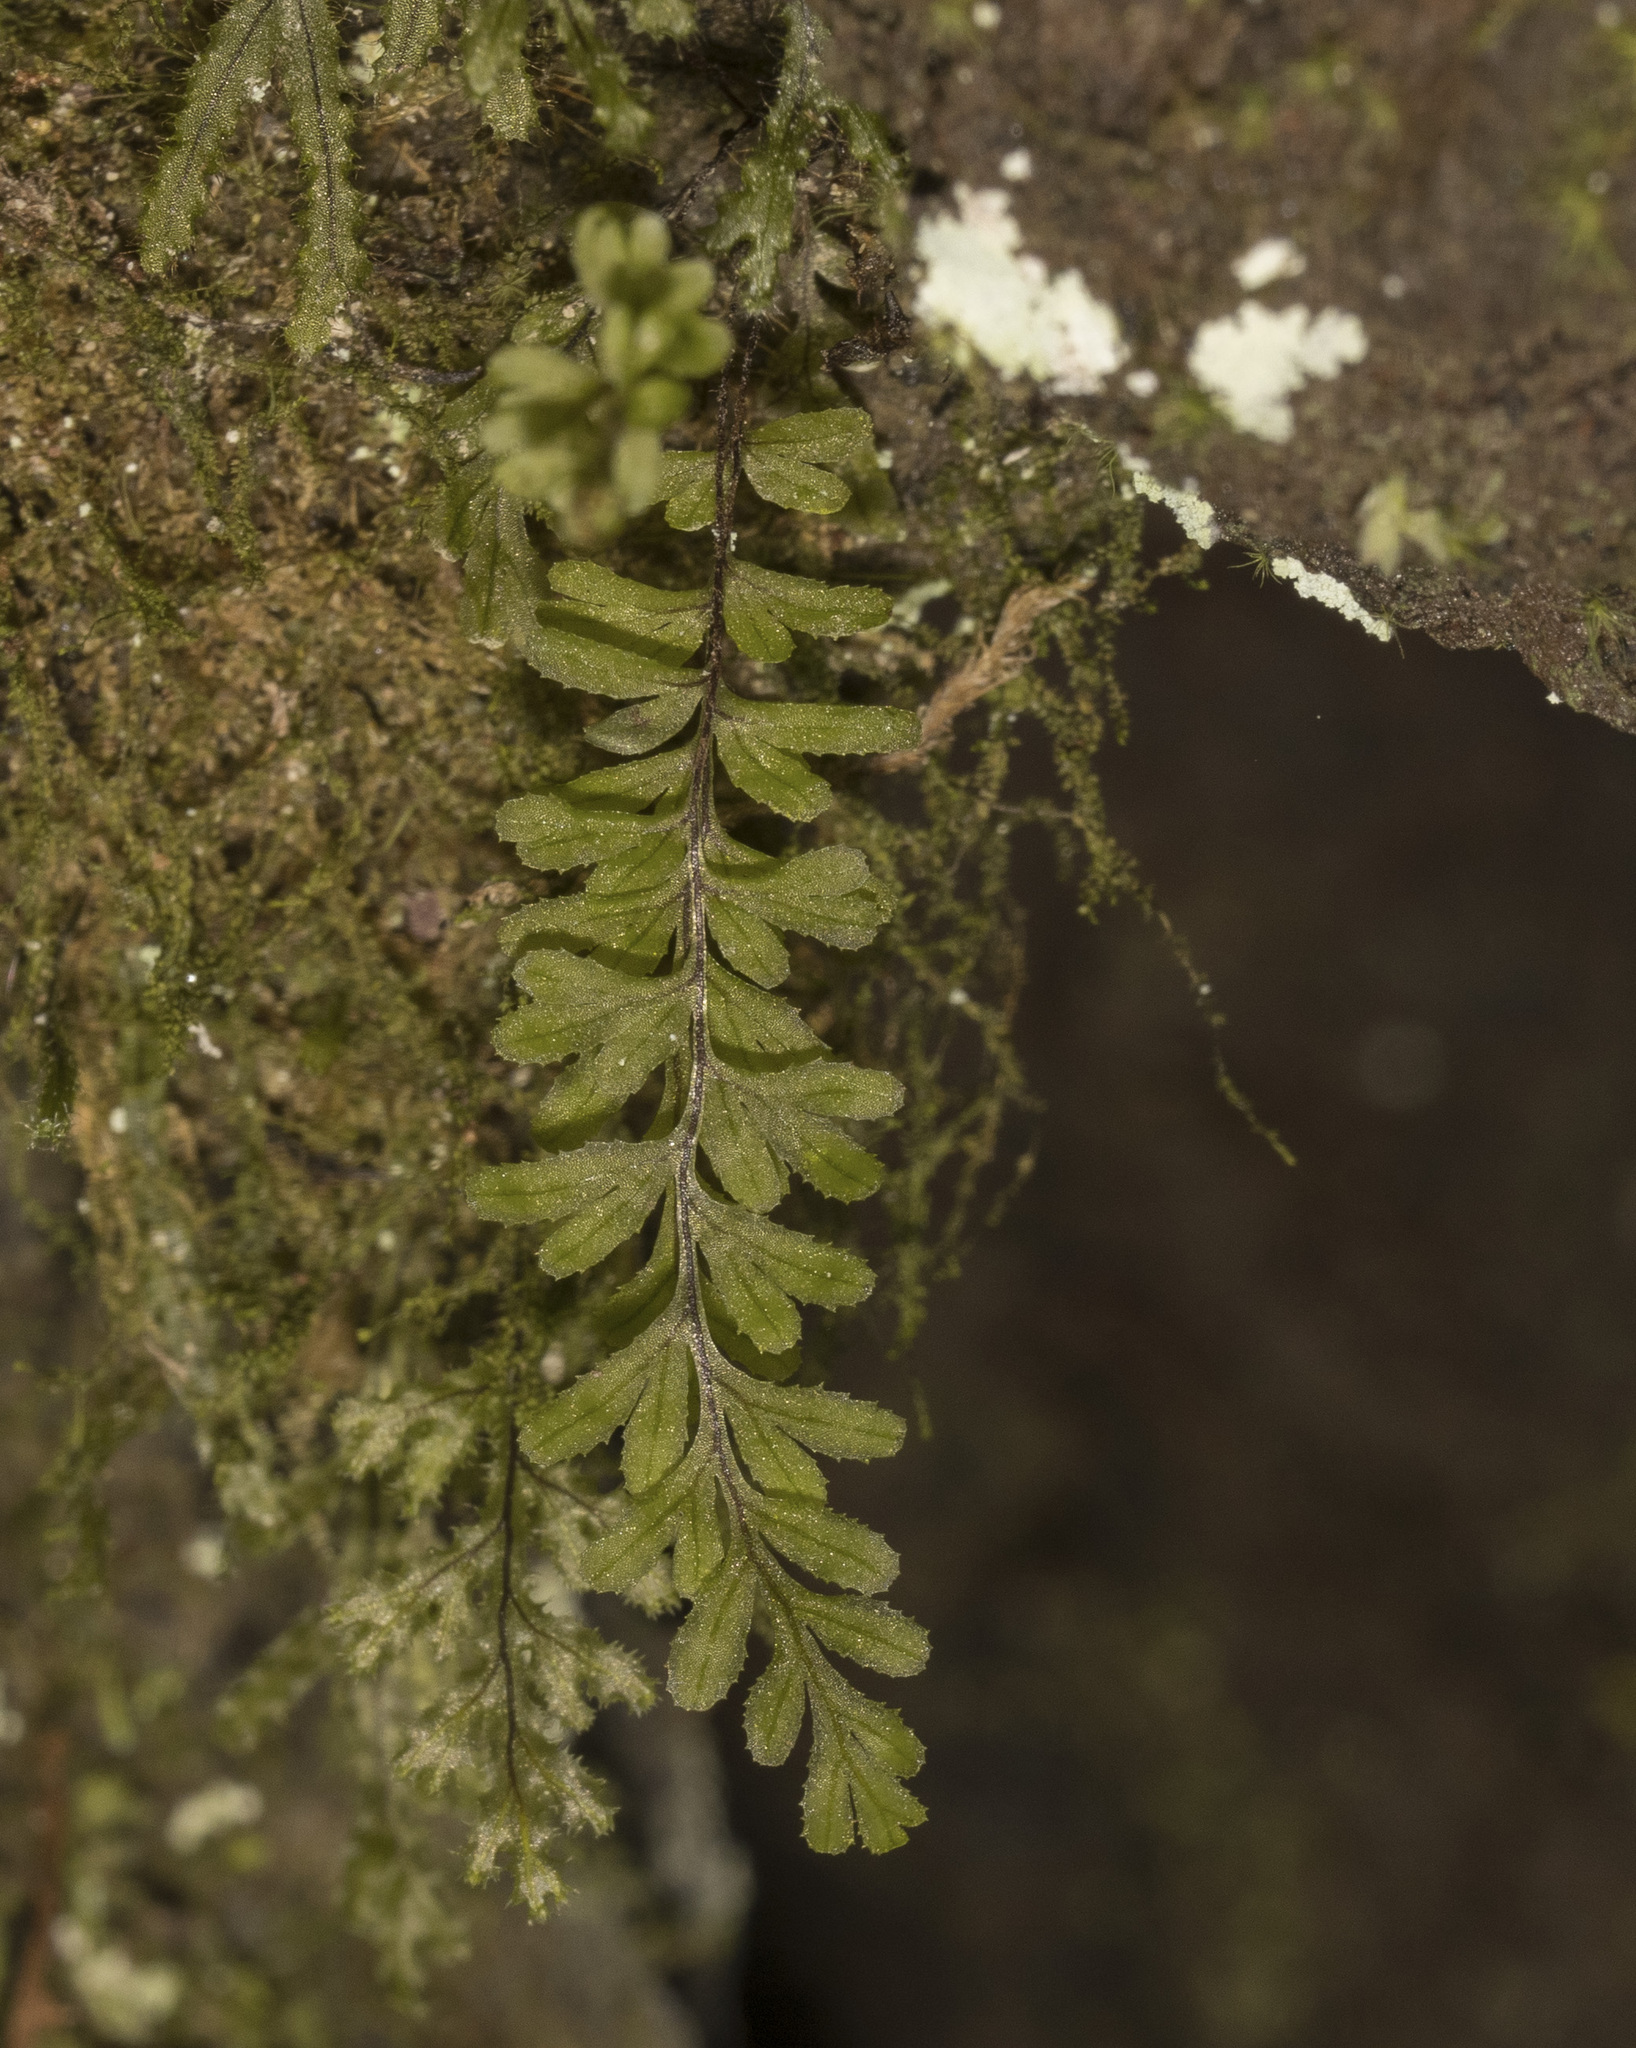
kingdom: Plantae
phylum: Tracheophyta
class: Polypodiopsida
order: Hymenophyllales
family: Hymenophyllaceae
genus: Hymenophyllum
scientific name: Hymenophyllum falklandicum
